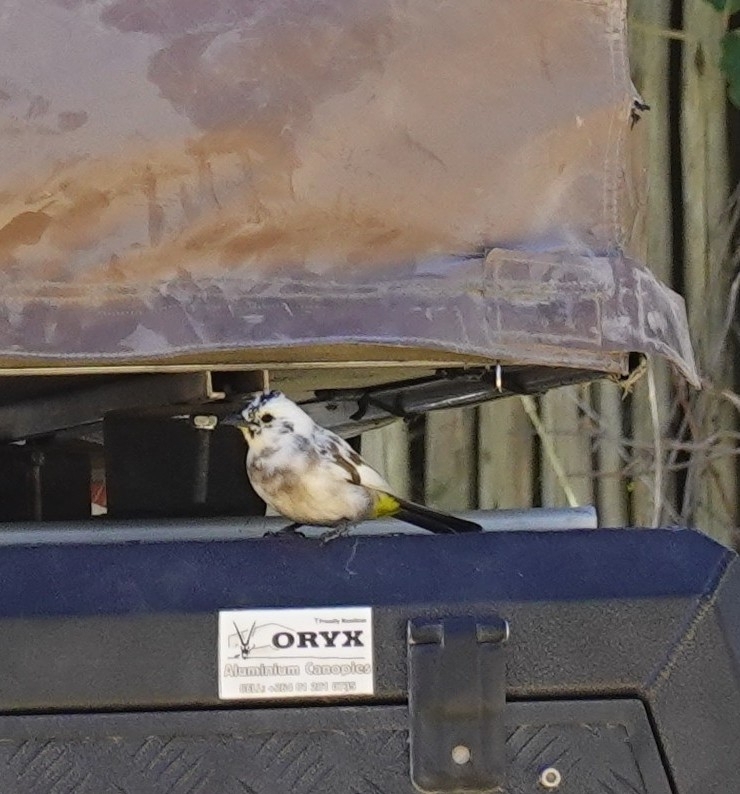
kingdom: Animalia
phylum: Chordata
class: Aves
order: Passeriformes
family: Pycnonotidae
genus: Pycnonotus
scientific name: Pycnonotus barbatus
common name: Common bulbul
